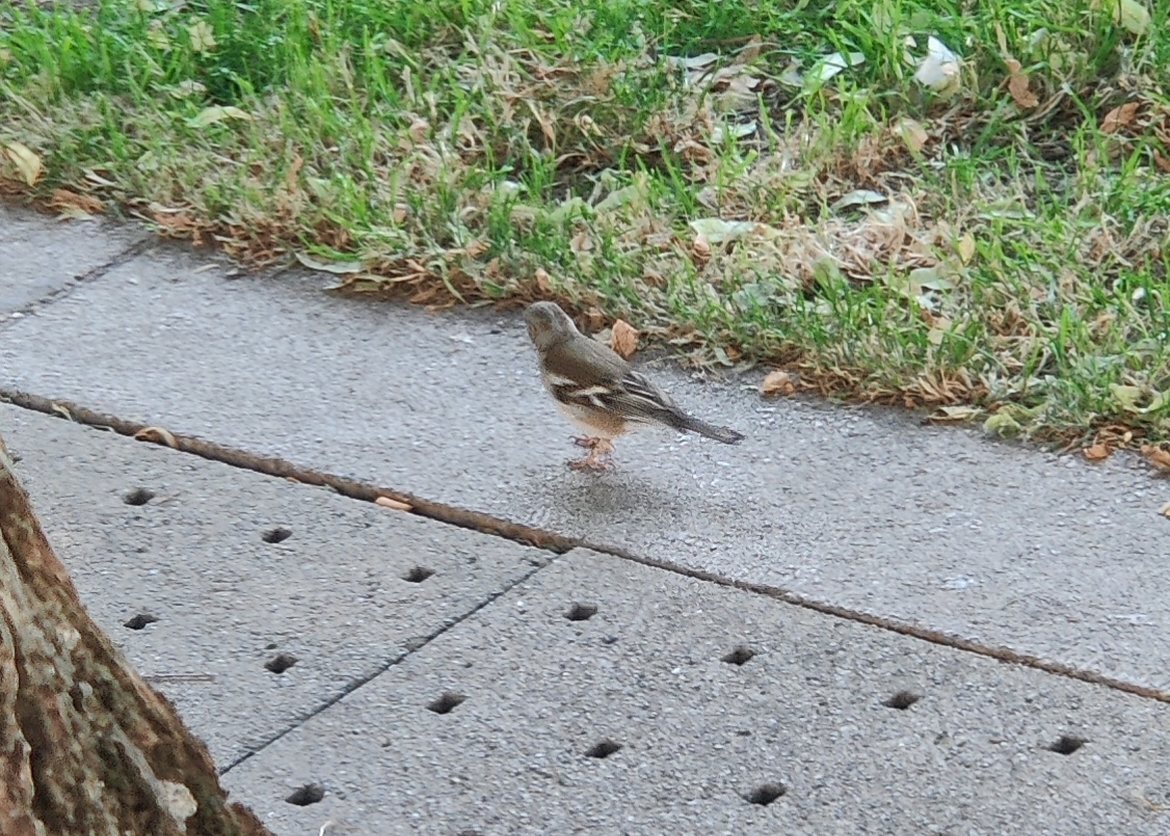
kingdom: Animalia
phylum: Chordata
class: Aves
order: Passeriformes
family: Fringillidae
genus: Fringilla
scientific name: Fringilla coelebs
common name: Common chaffinch
